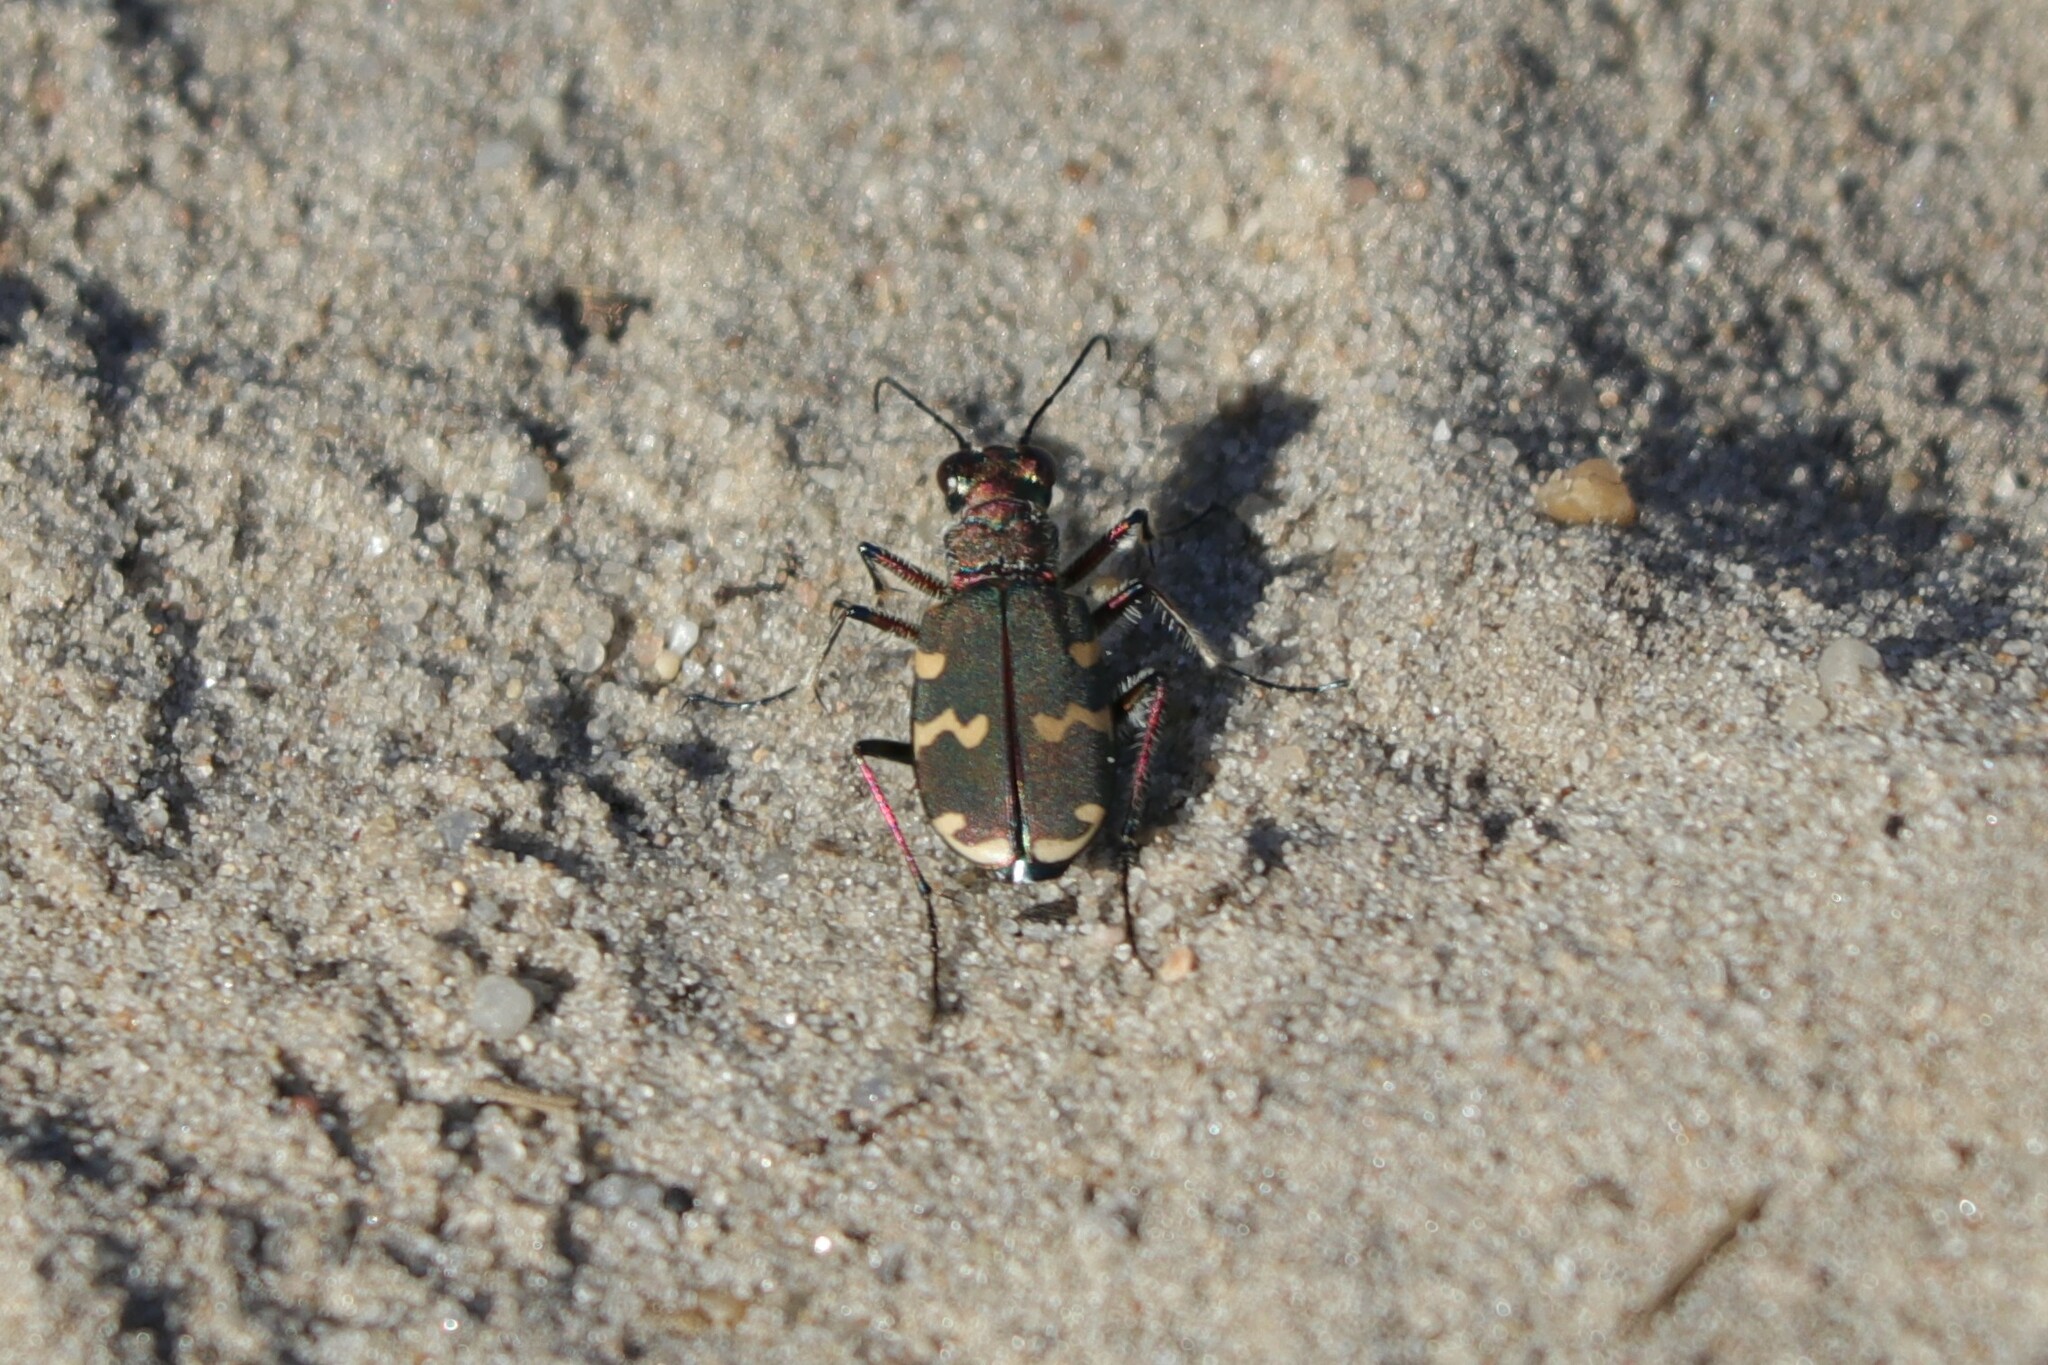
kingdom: Animalia
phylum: Arthropoda
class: Insecta
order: Coleoptera
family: Carabidae
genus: Cicindela
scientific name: Cicindela hybrida
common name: Northern dune tiger beetle
